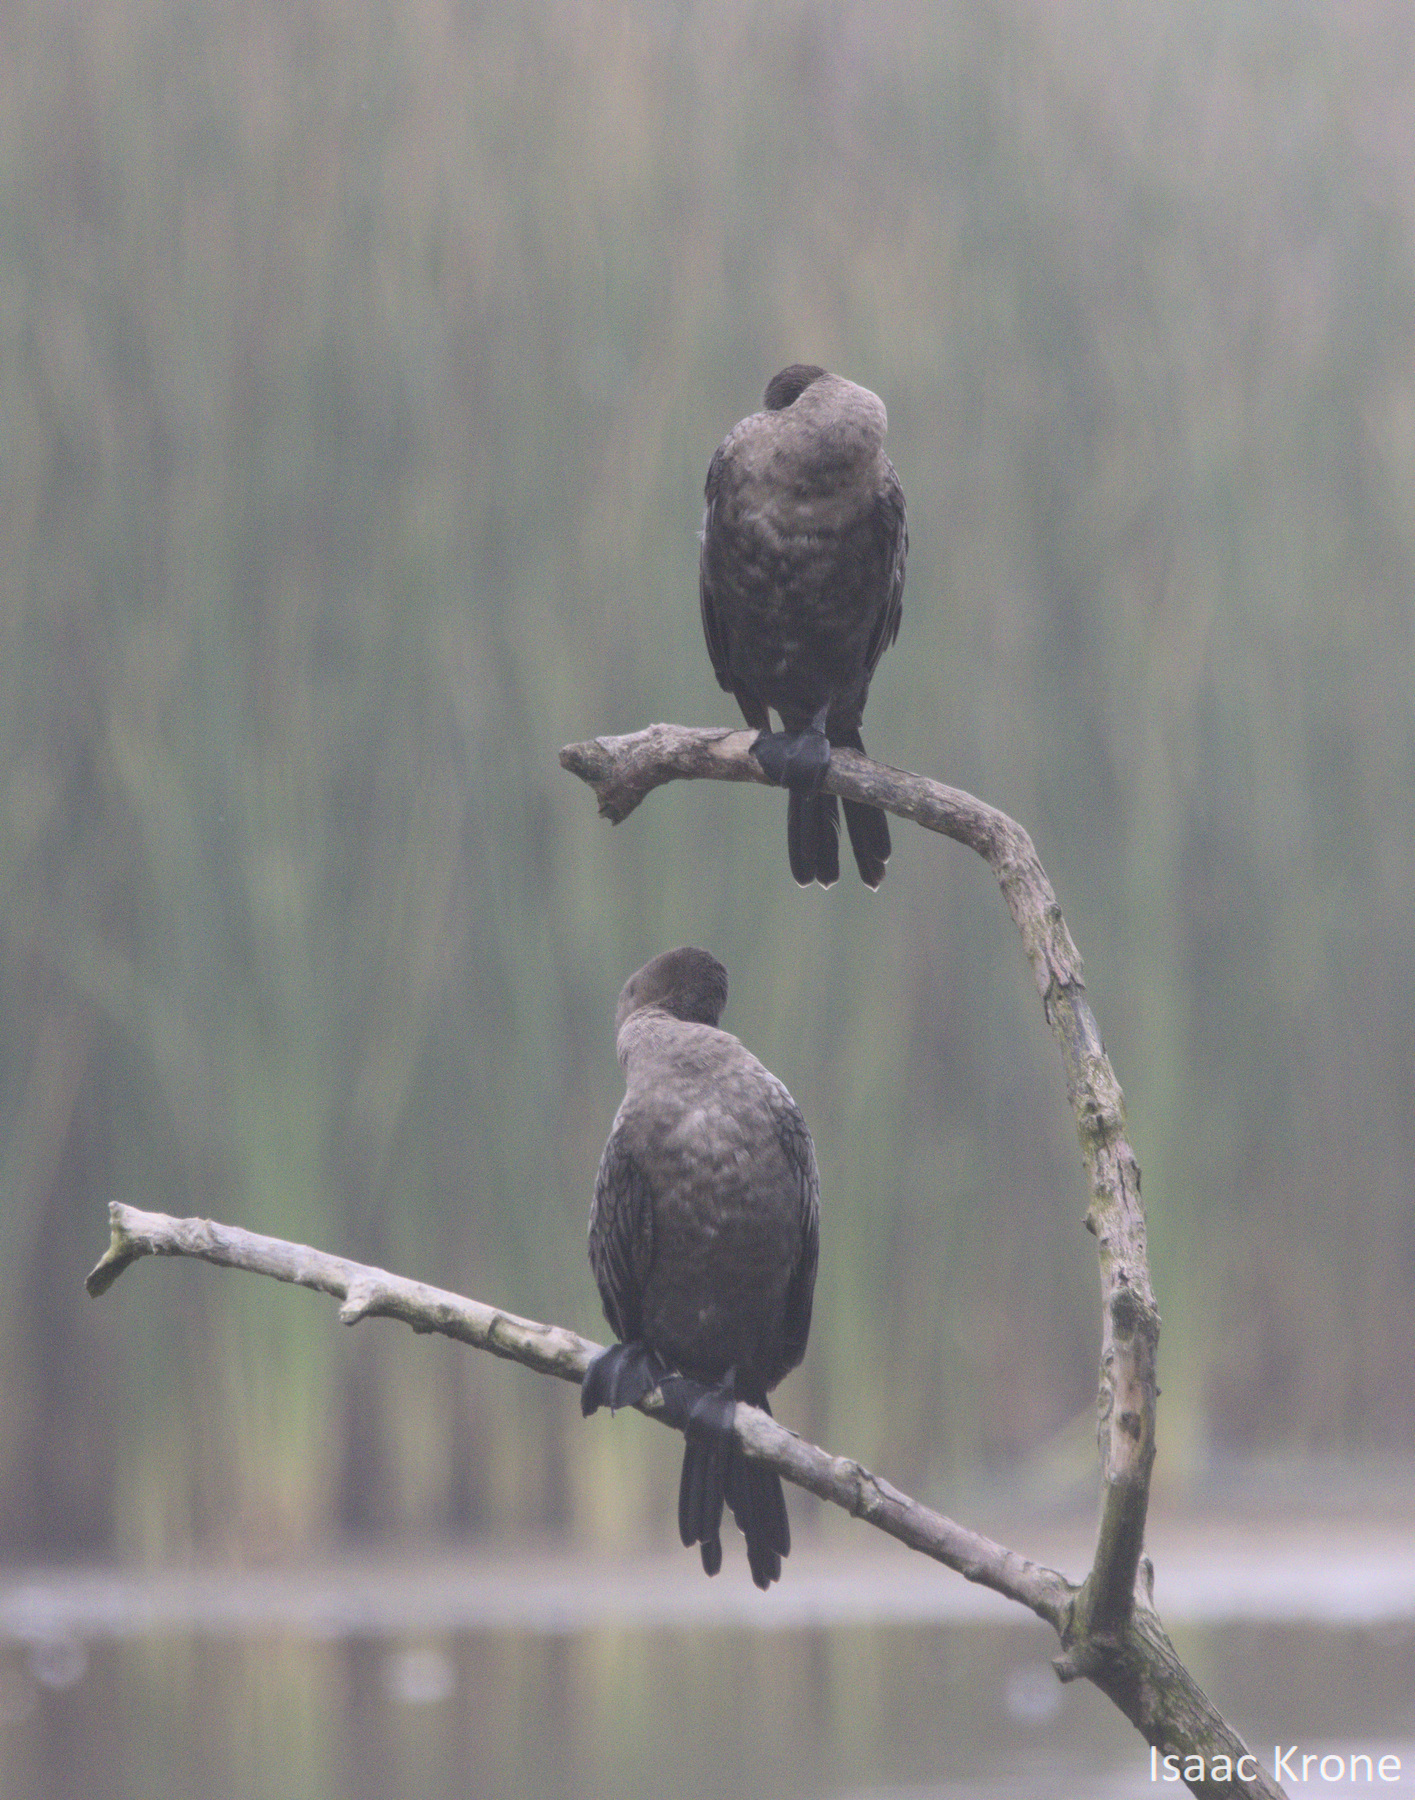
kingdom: Animalia
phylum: Chordata
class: Aves
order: Suliformes
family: Phalacrocoracidae
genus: Phalacrocorax
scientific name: Phalacrocorax brasilianus
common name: Neotropic cormorant
